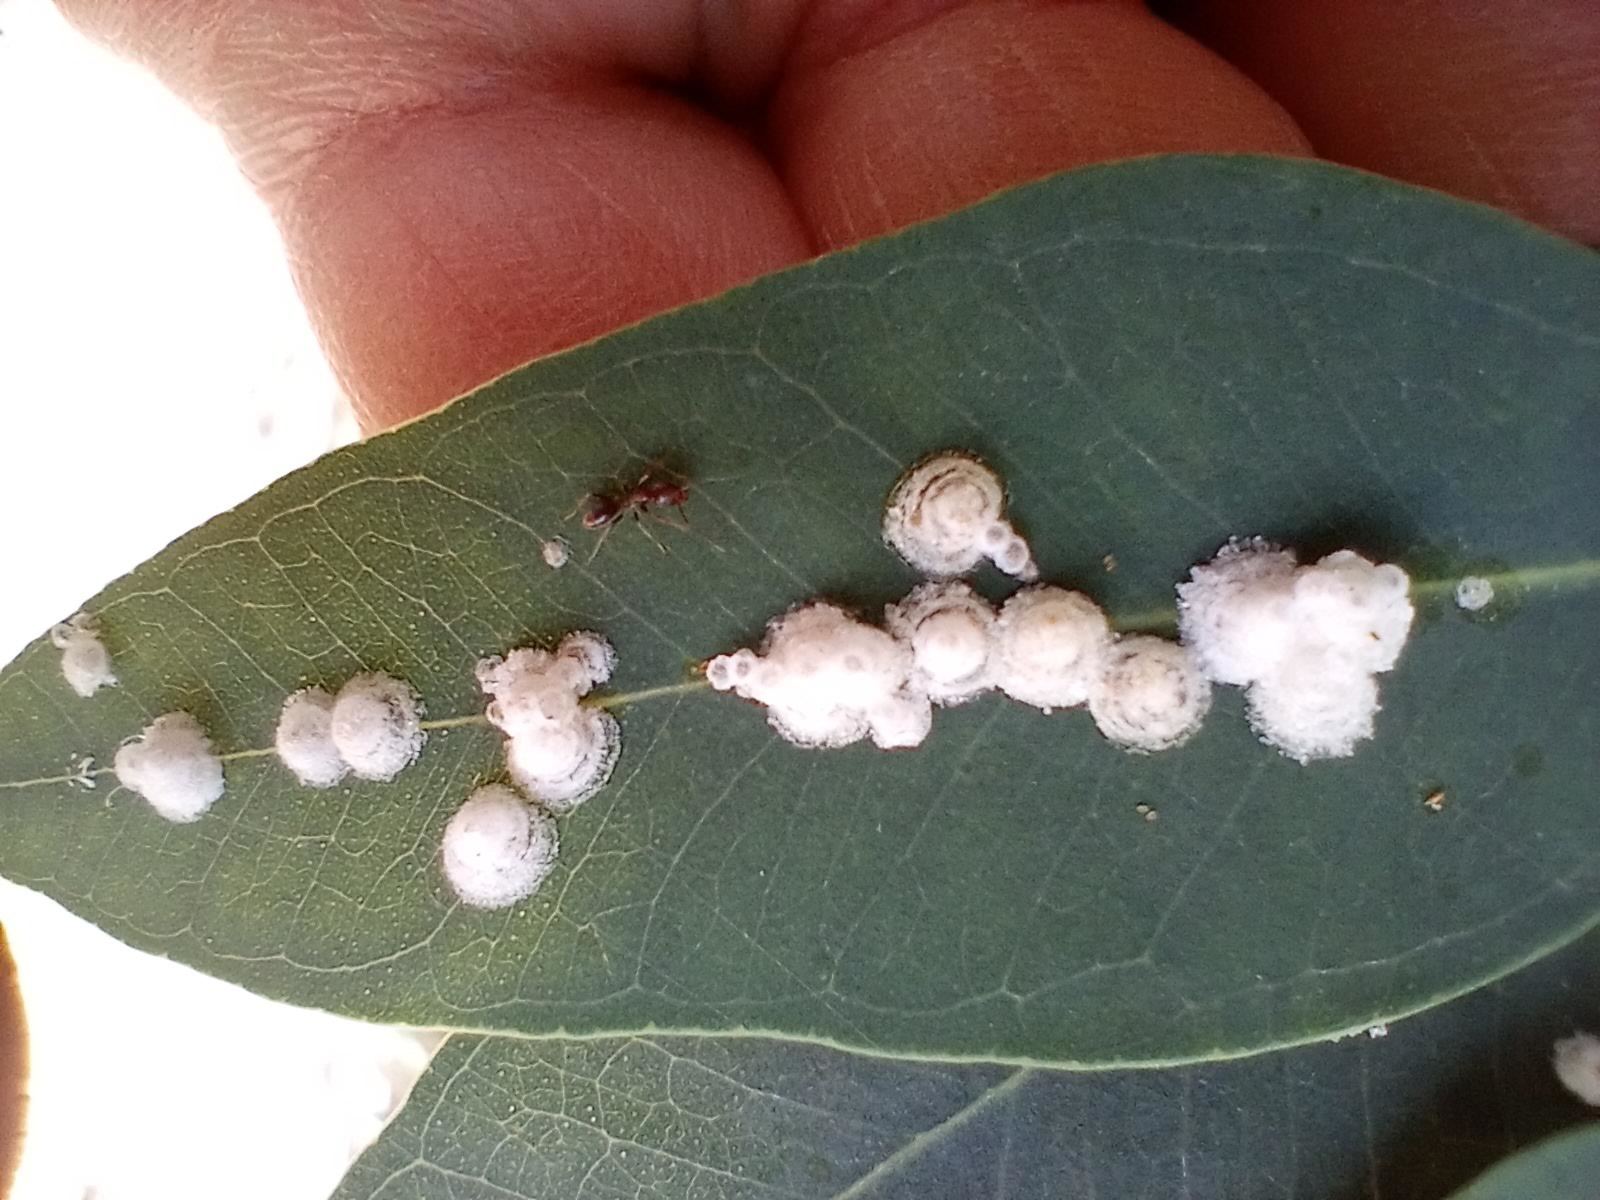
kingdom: Animalia
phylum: Arthropoda
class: Insecta
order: Hemiptera
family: Aphalaridae
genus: Glycaspis
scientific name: Glycaspis brimblecombei
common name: Red gum lerp psyllid
